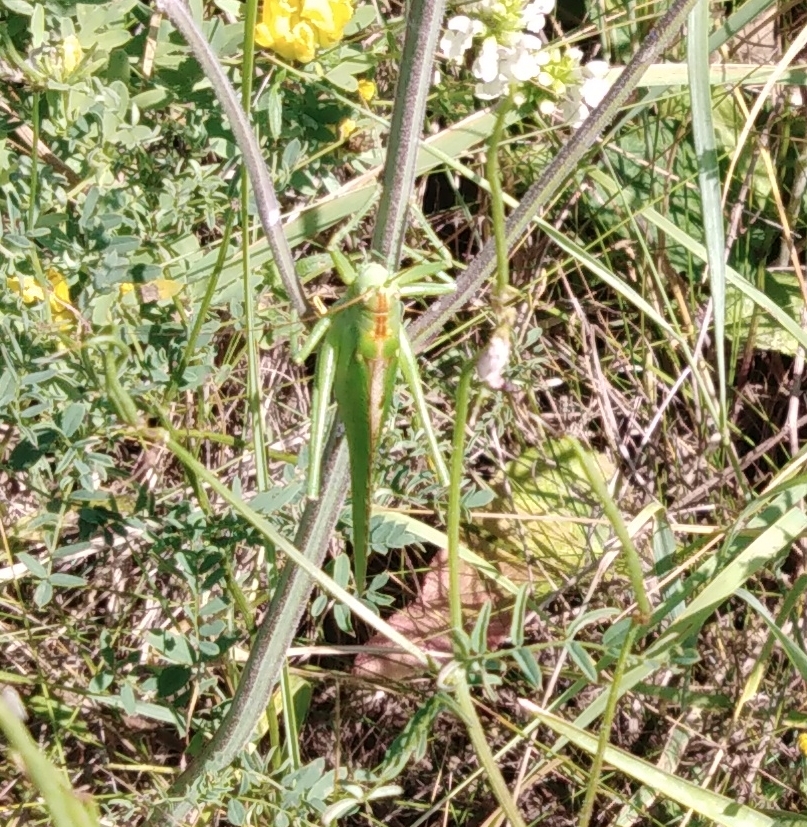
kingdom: Animalia
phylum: Arthropoda
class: Insecta
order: Orthoptera
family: Tettigoniidae
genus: Tettigonia
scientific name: Tettigonia viridissima
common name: Great green bush-cricket
